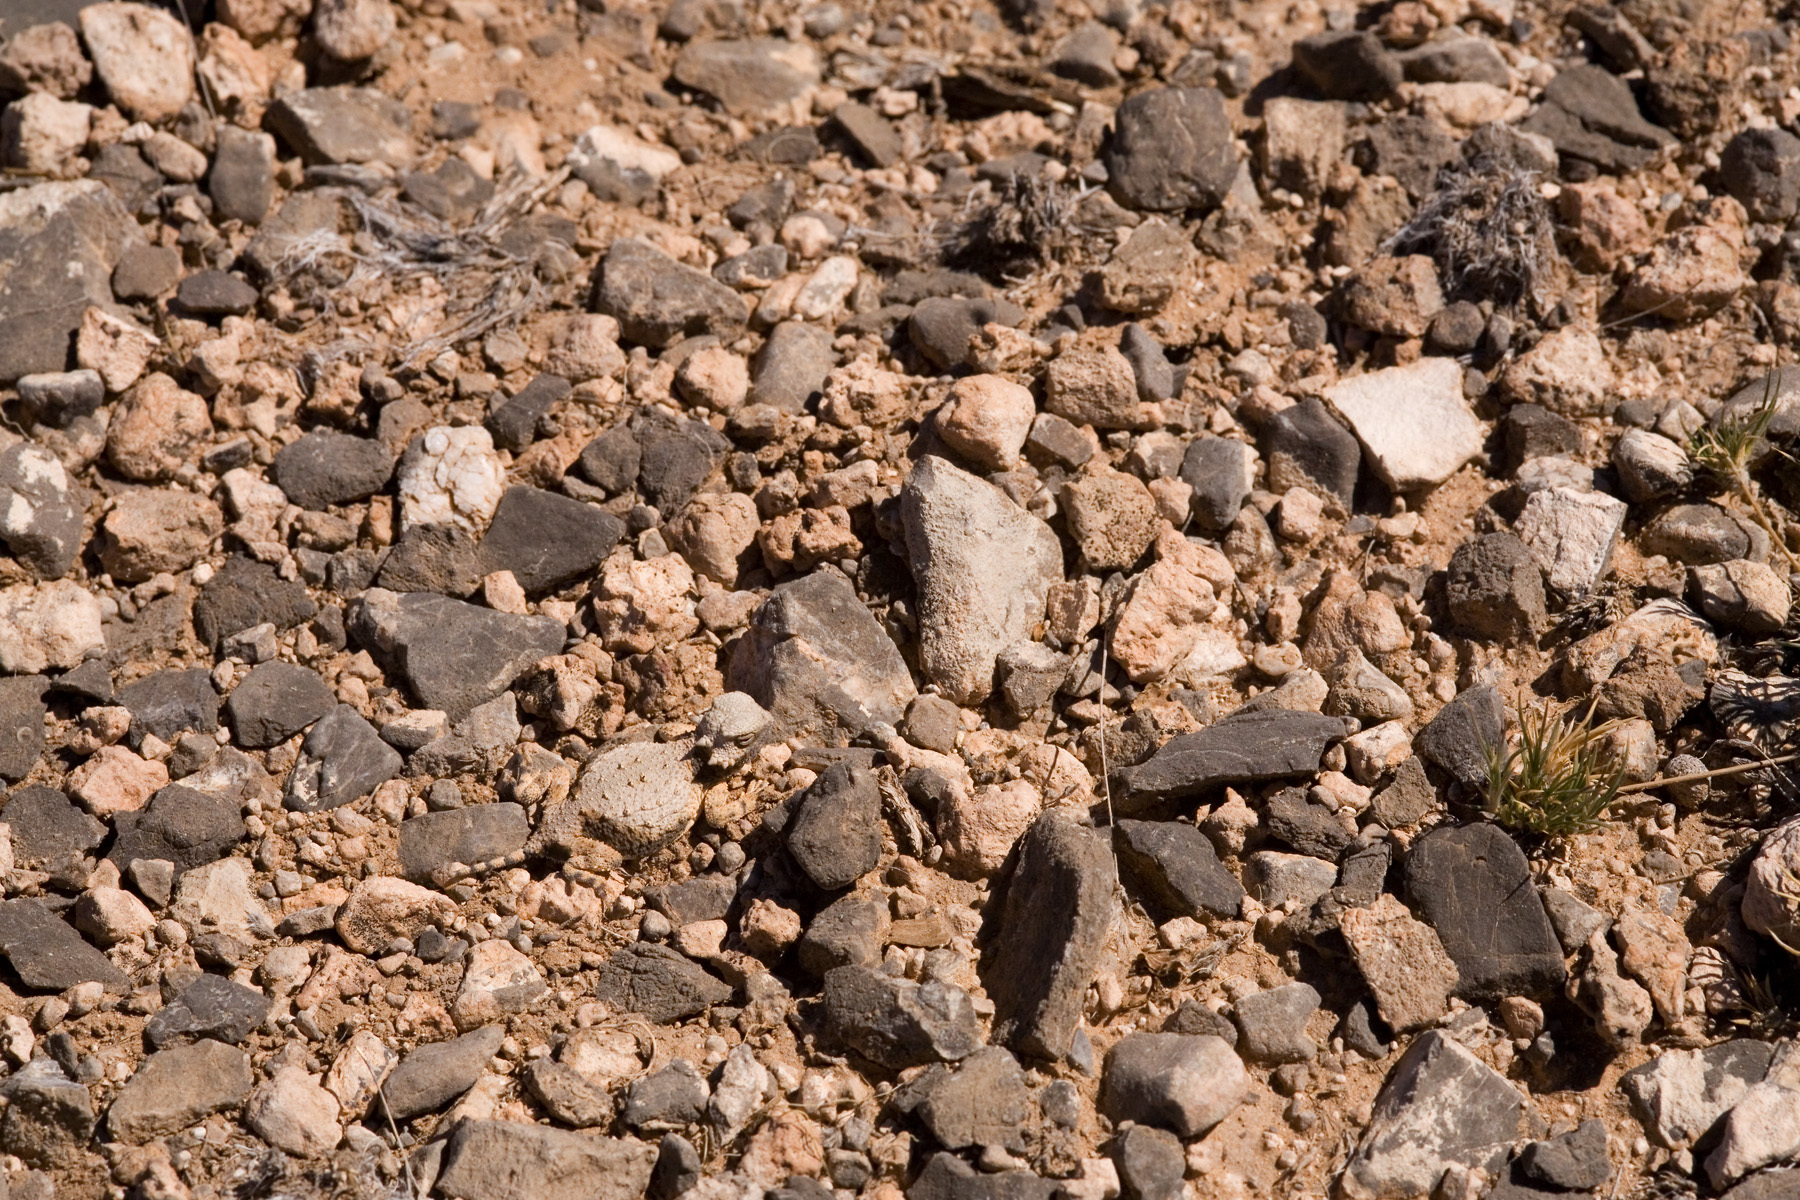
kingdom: Animalia
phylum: Chordata
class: Squamata
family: Phrynosomatidae
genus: Phrynosoma
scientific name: Phrynosoma modestum
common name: Roundtail horned lizard
